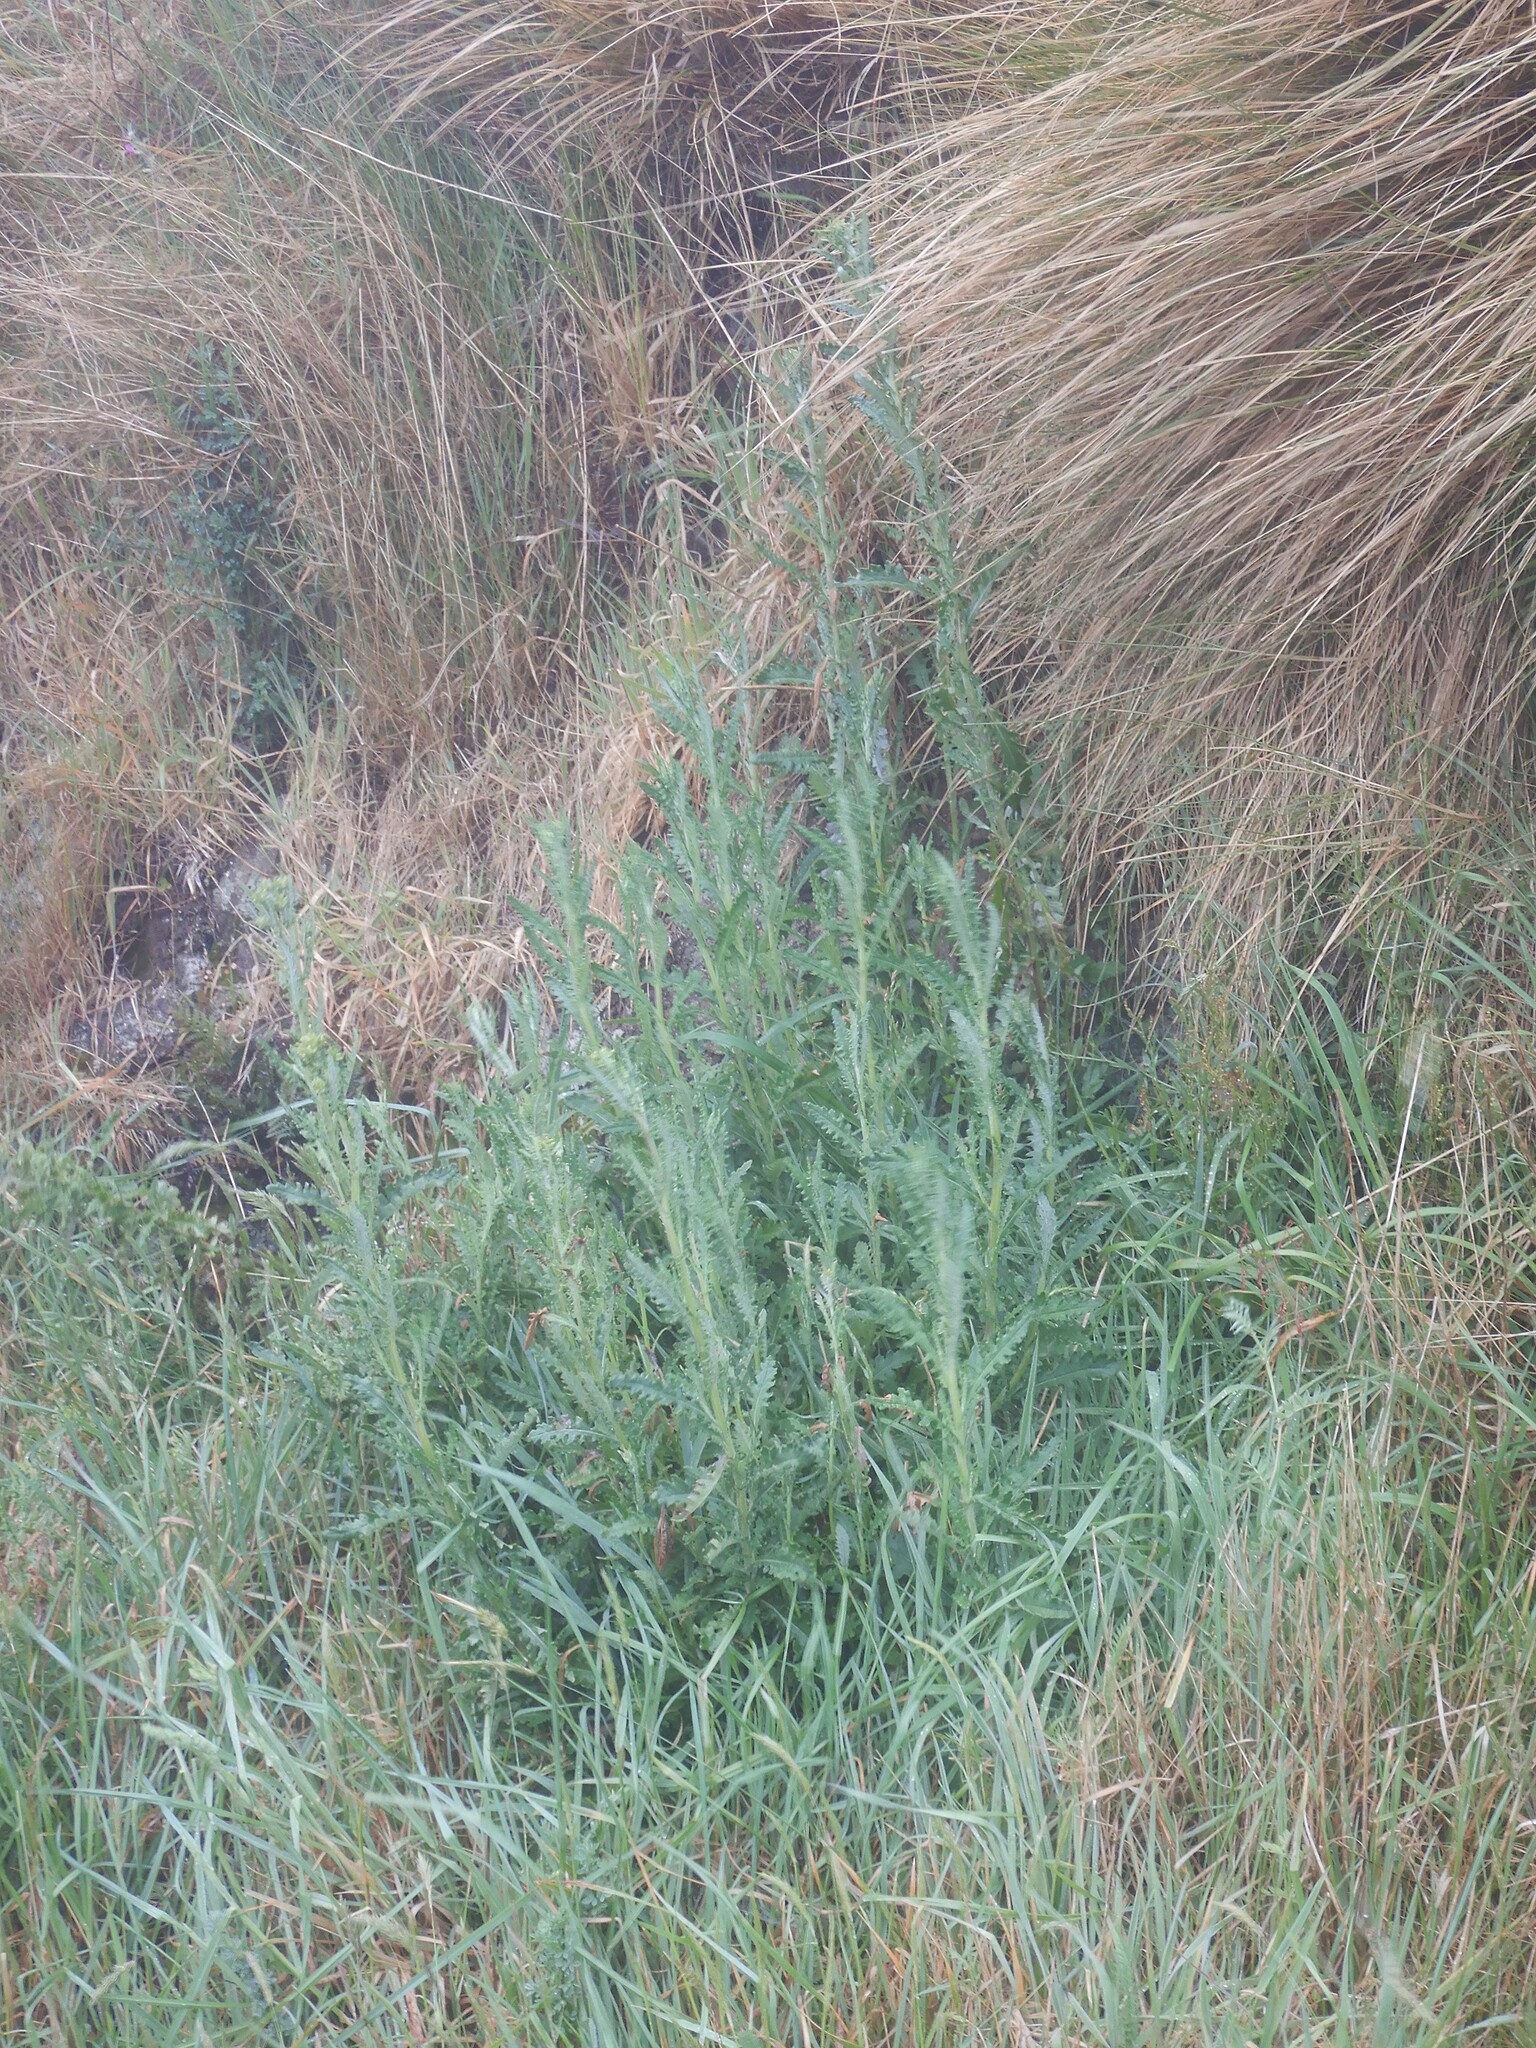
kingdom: Plantae
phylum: Tracheophyta
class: Magnoliopsida
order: Asterales
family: Asteraceae
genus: Senecio
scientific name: Senecio glomeratus
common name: Cutleaf burnweed
